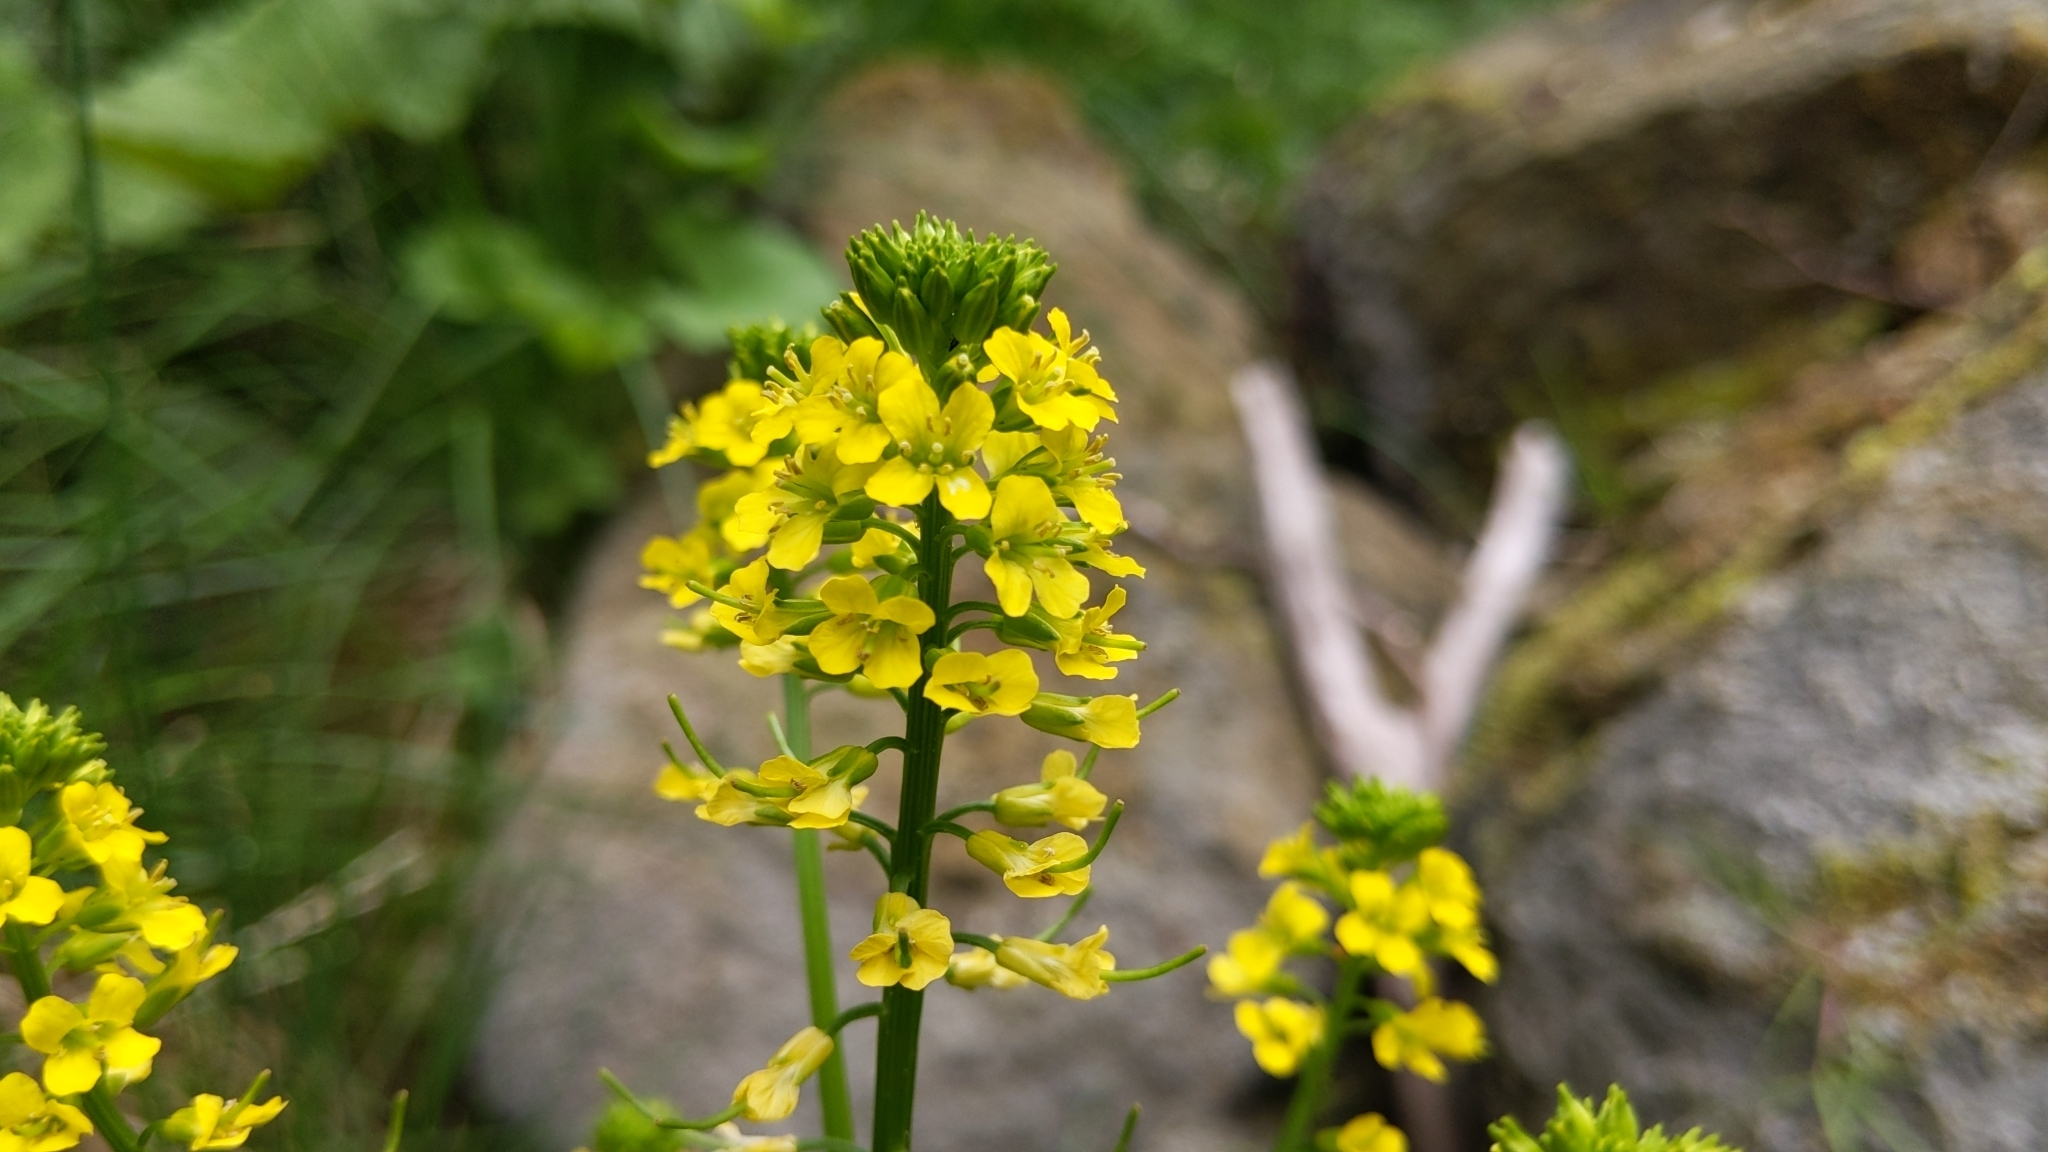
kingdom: Plantae
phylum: Tracheophyta
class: Magnoliopsida
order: Brassicales
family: Brassicaceae
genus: Barbarea
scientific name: Barbarea vulgaris
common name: Cressy-greens
